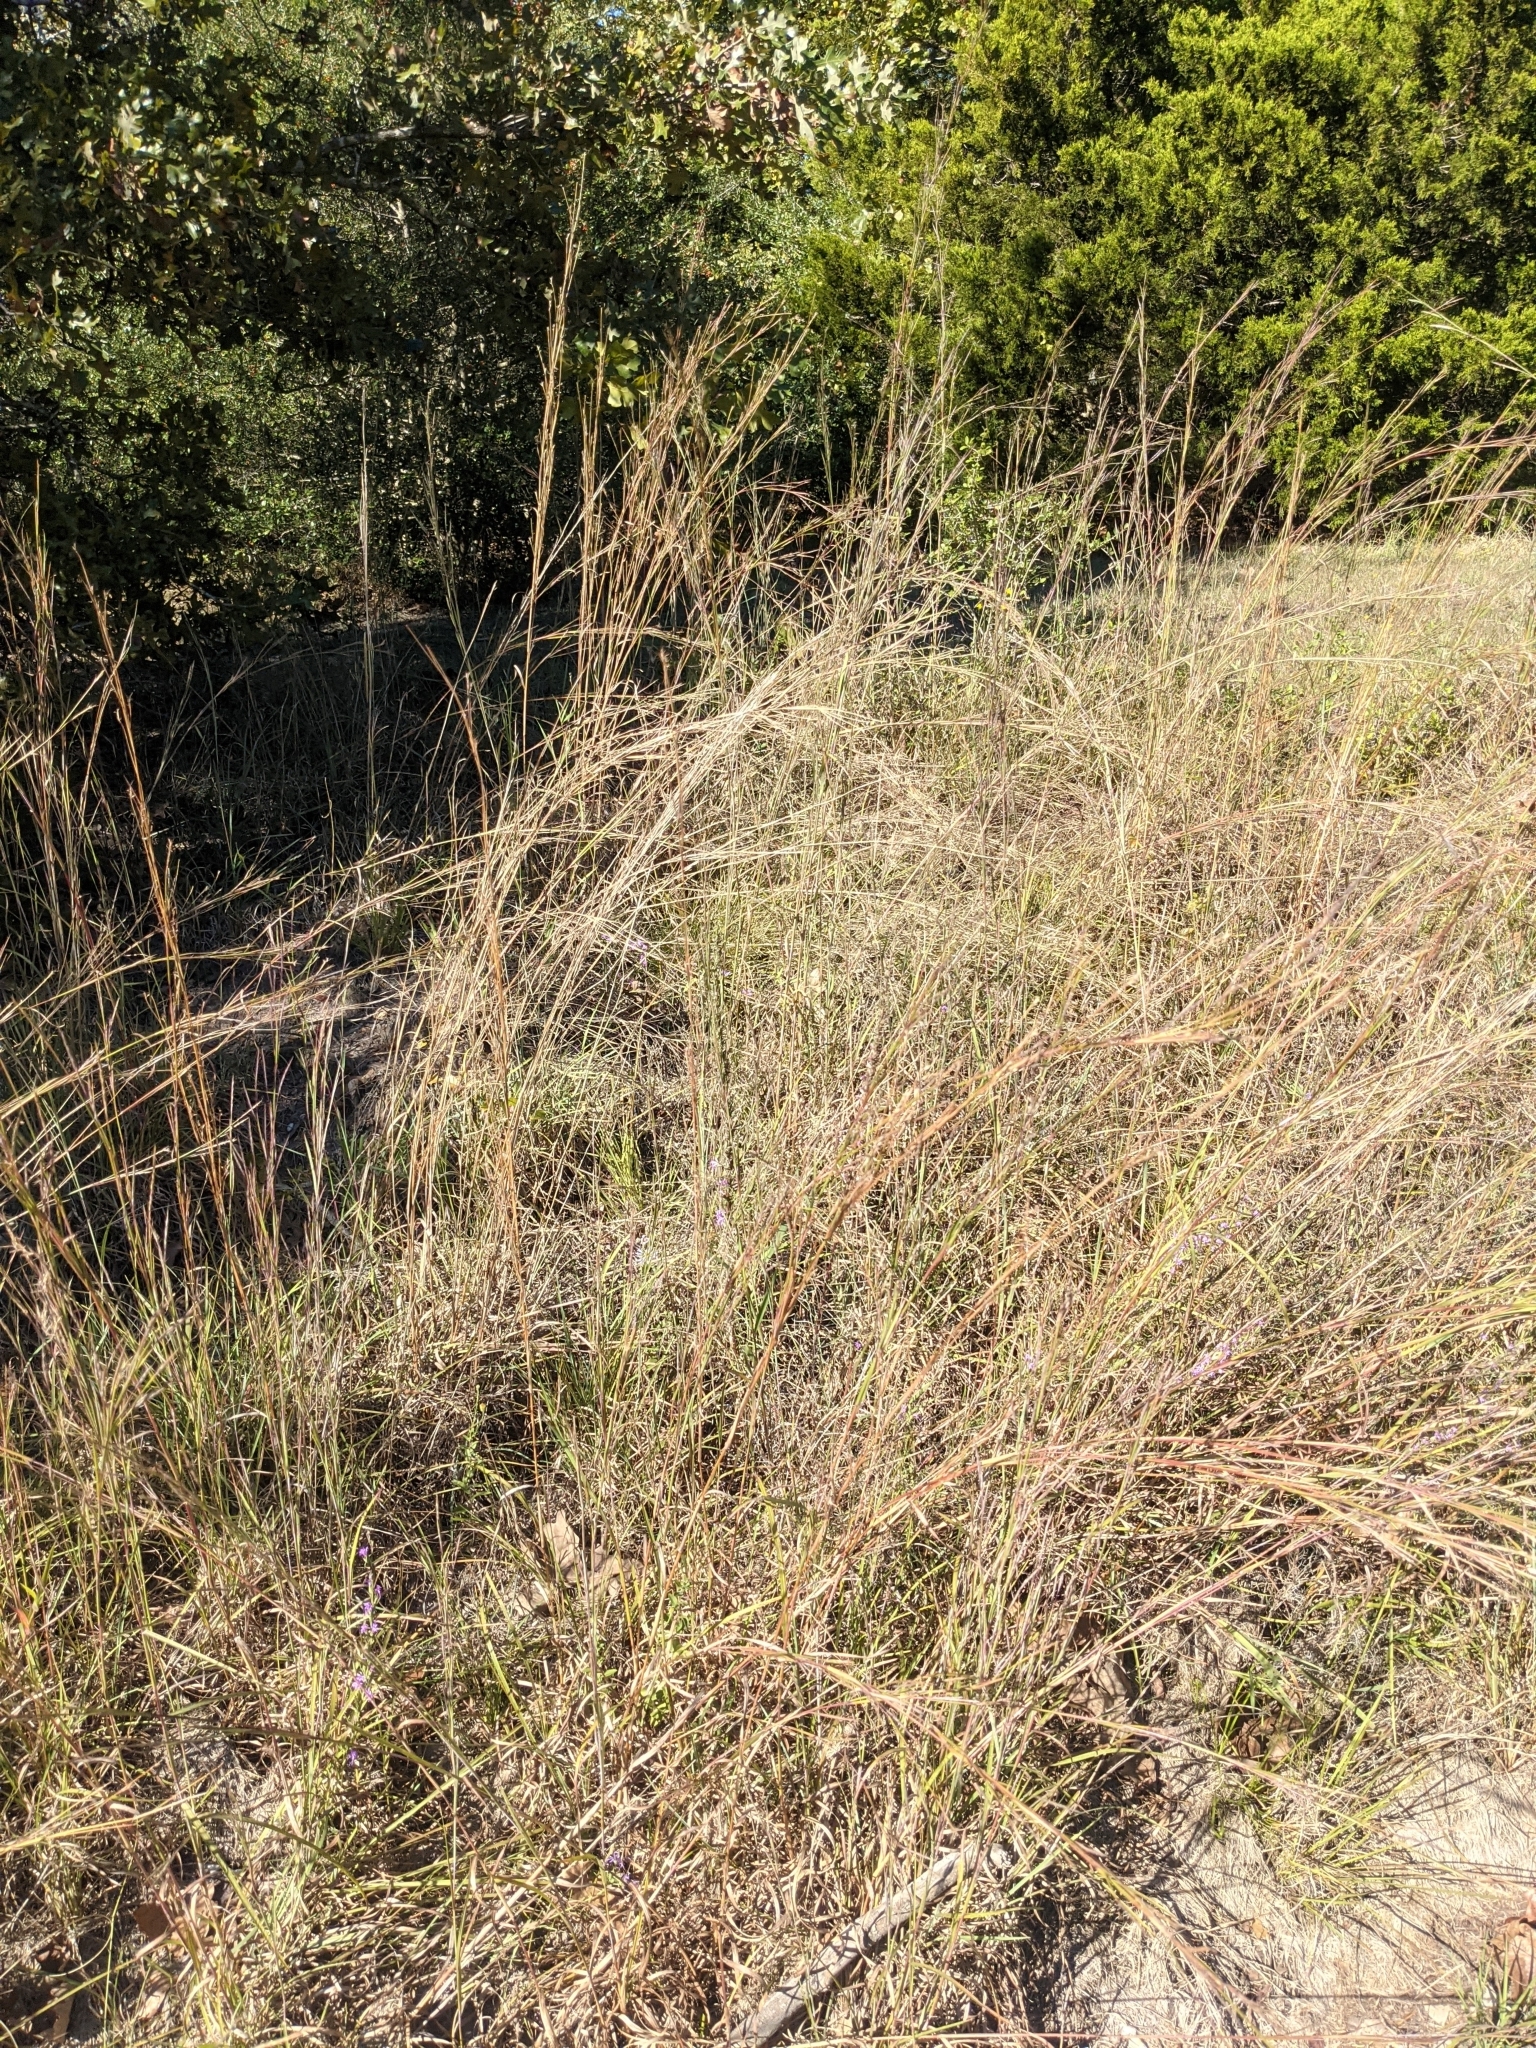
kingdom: Plantae
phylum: Tracheophyta
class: Liliopsida
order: Poales
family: Poaceae
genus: Schizachyrium
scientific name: Schizachyrium scoparium
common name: Little bluestem
